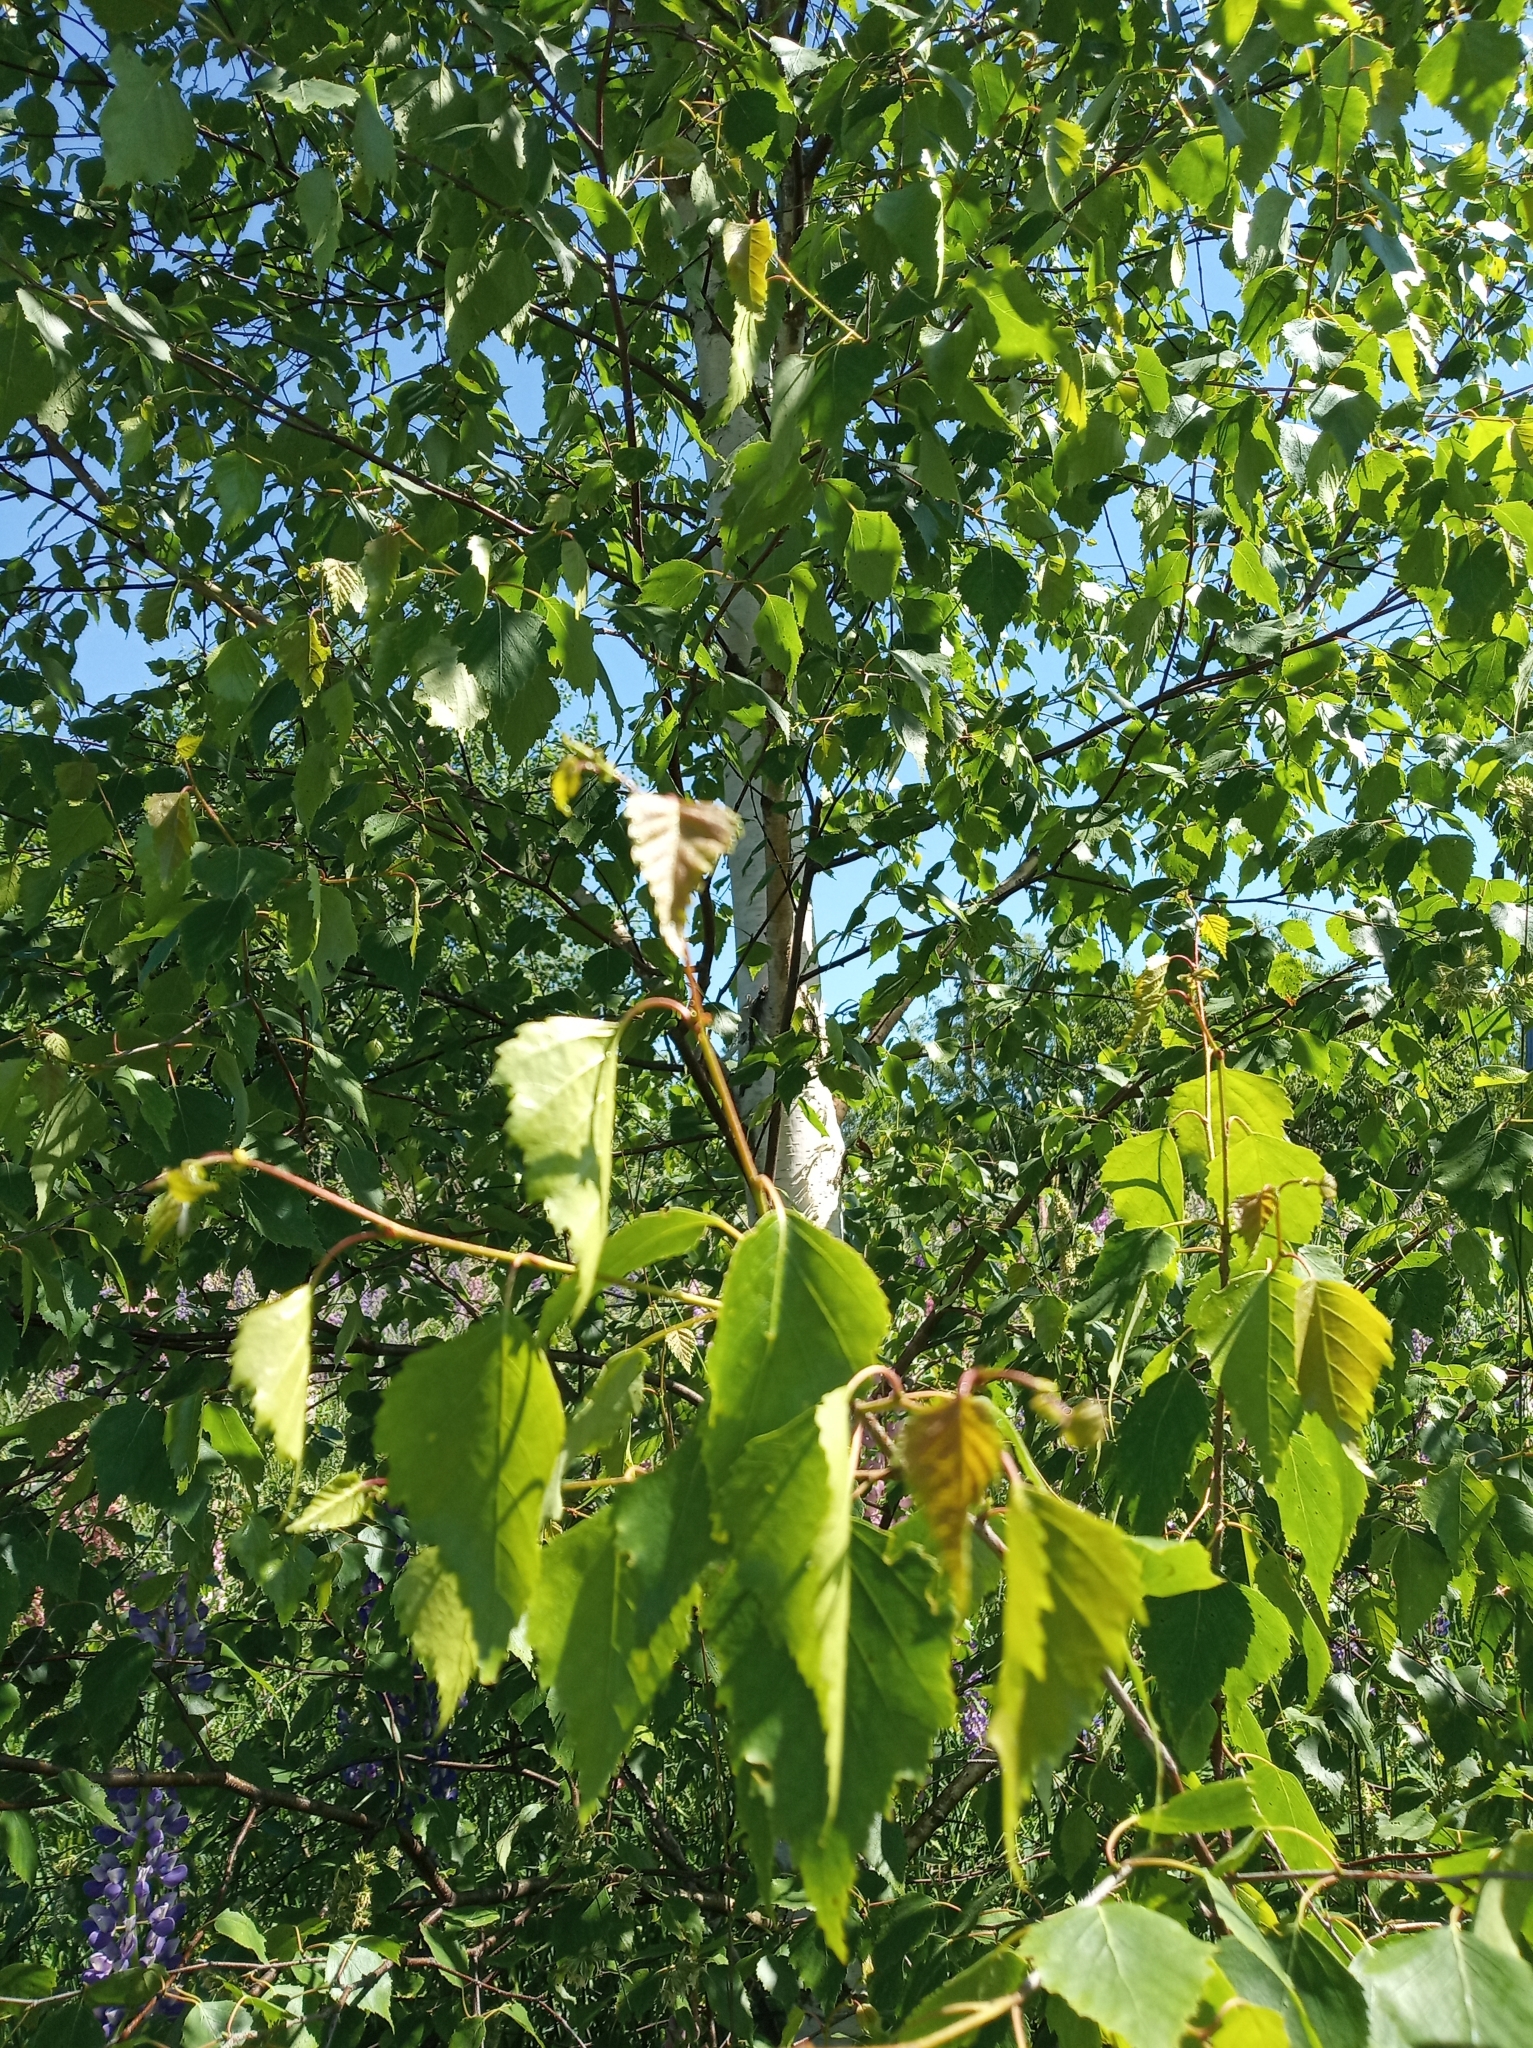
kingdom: Plantae
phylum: Tracheophyta
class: Magnoliopsida
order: Fagales
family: Betulaceae
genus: Betula
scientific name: Betula pendula
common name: Silver birch
